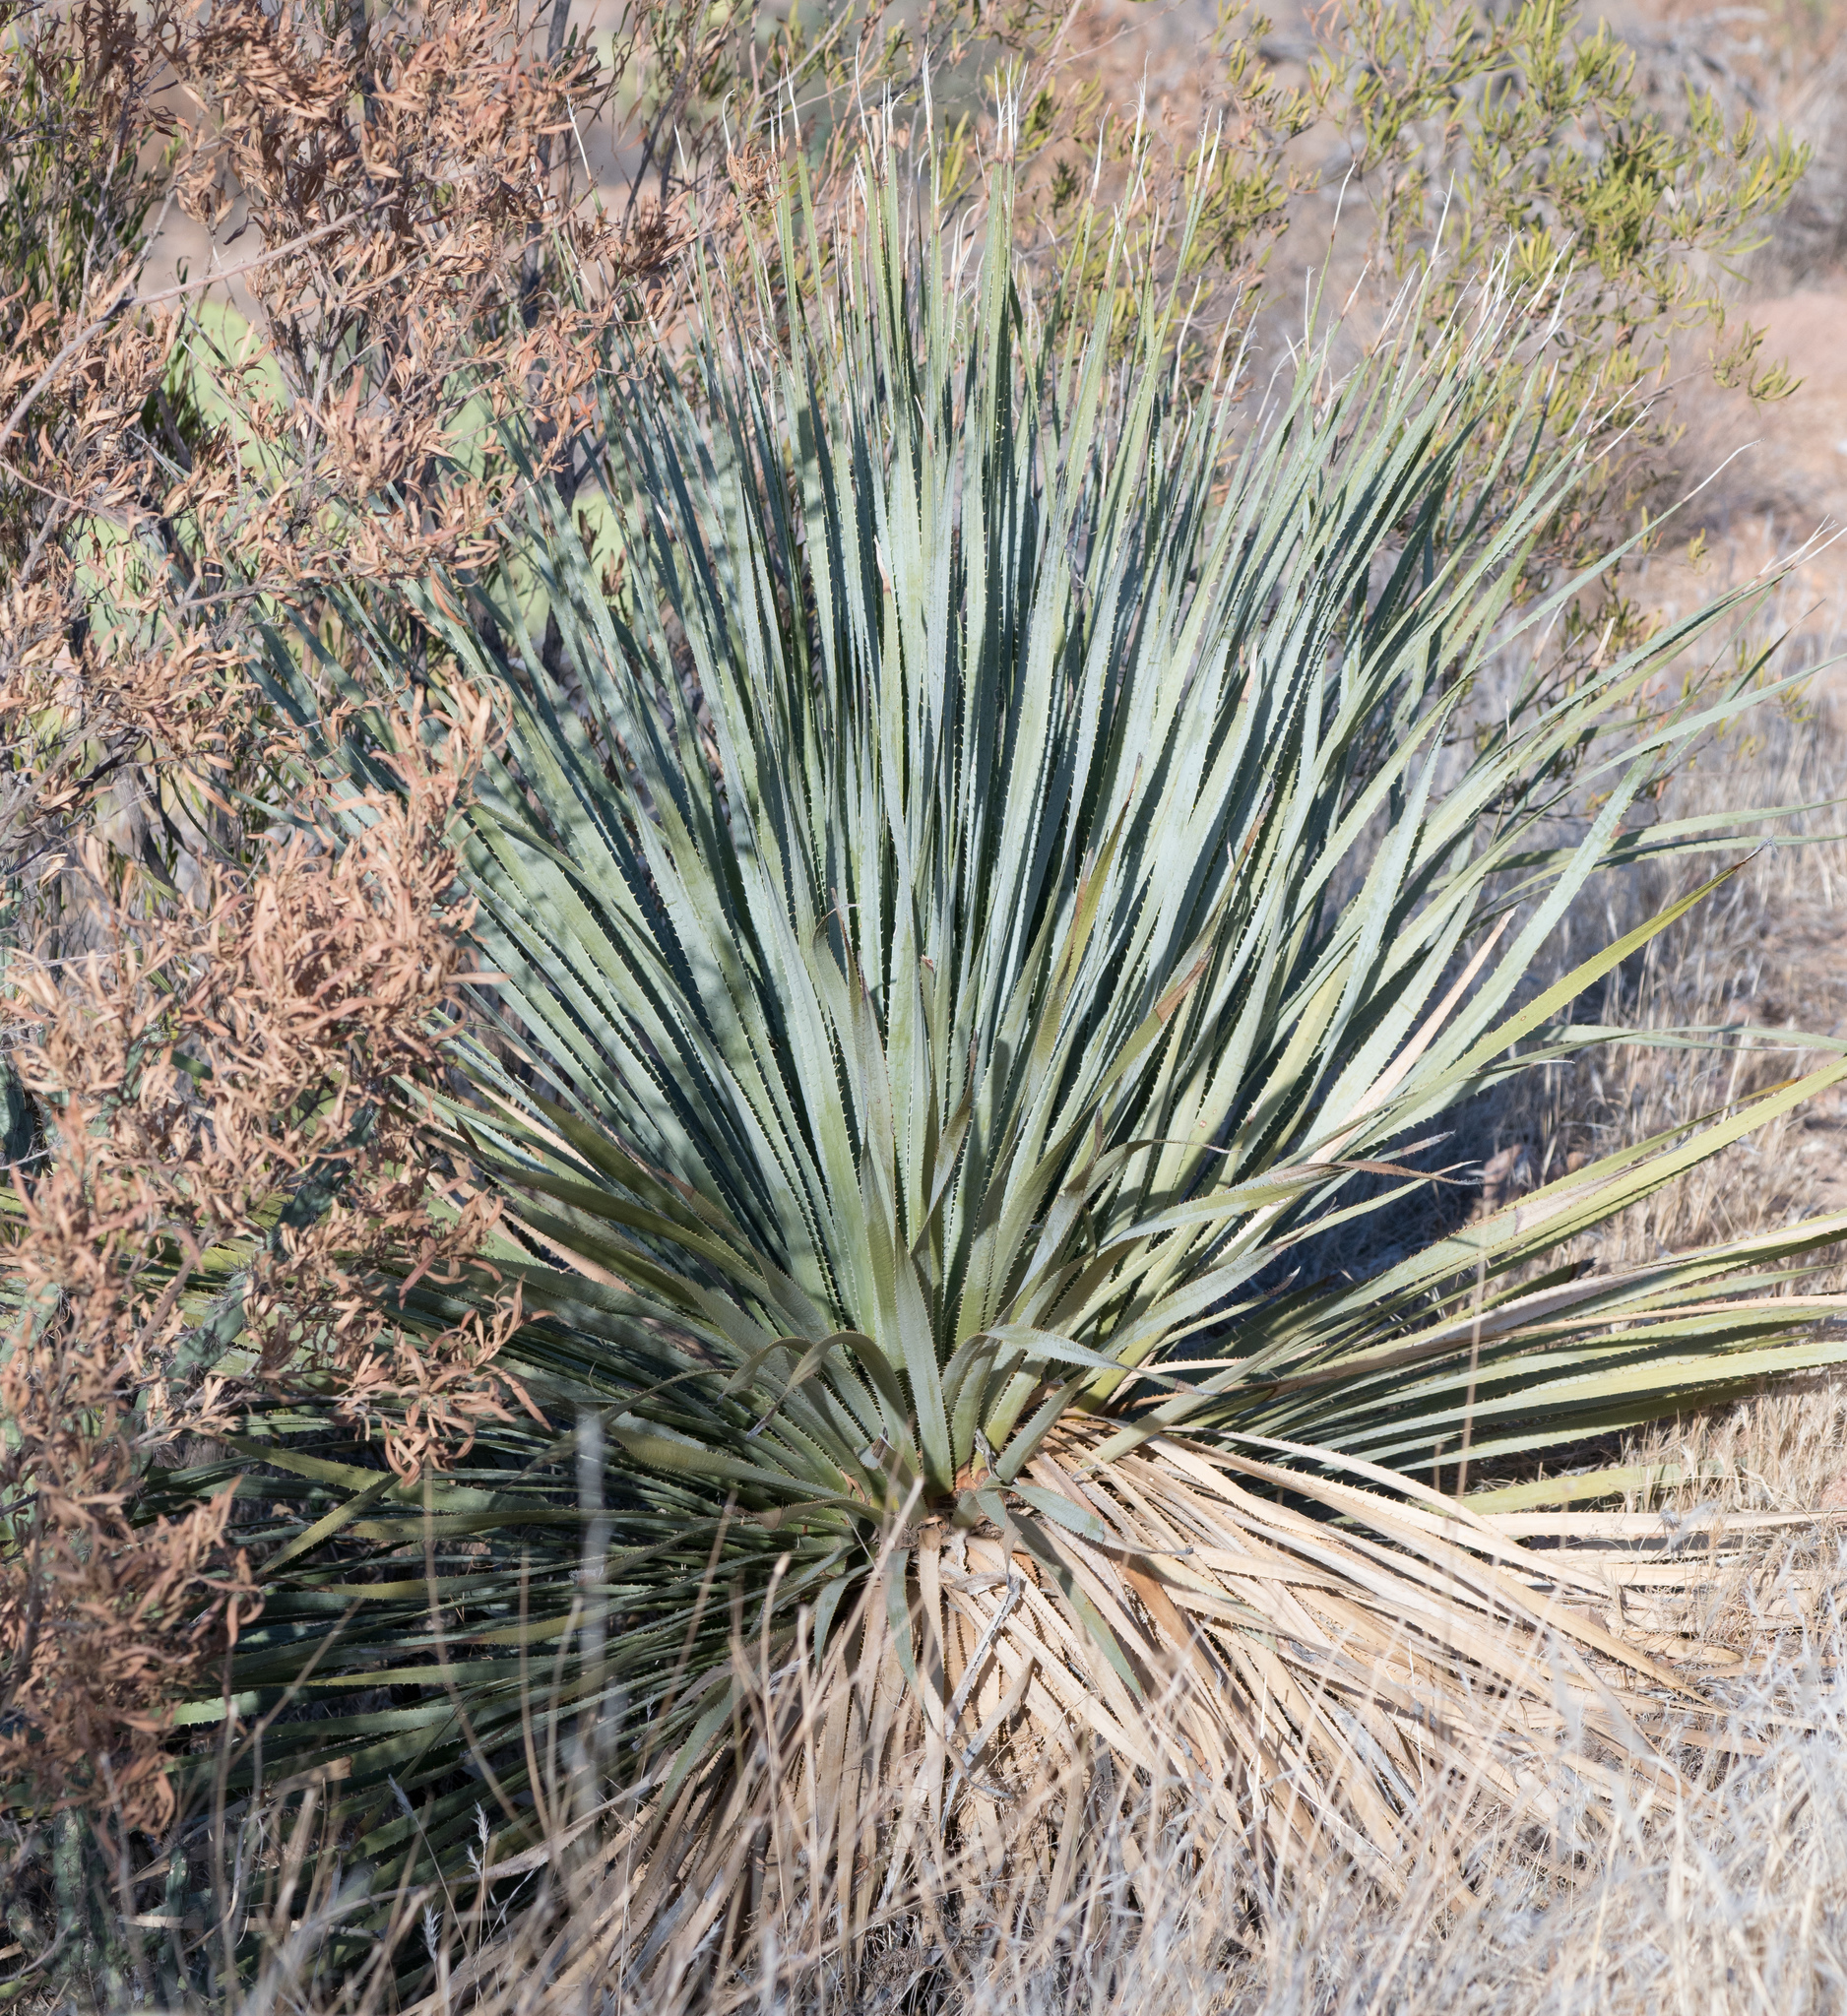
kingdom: Plantae
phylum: Tracheophyta
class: Liliopsida
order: Asparagales
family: Asparagaceae
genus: Dasylirion
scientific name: Dasylirion wheeleri
